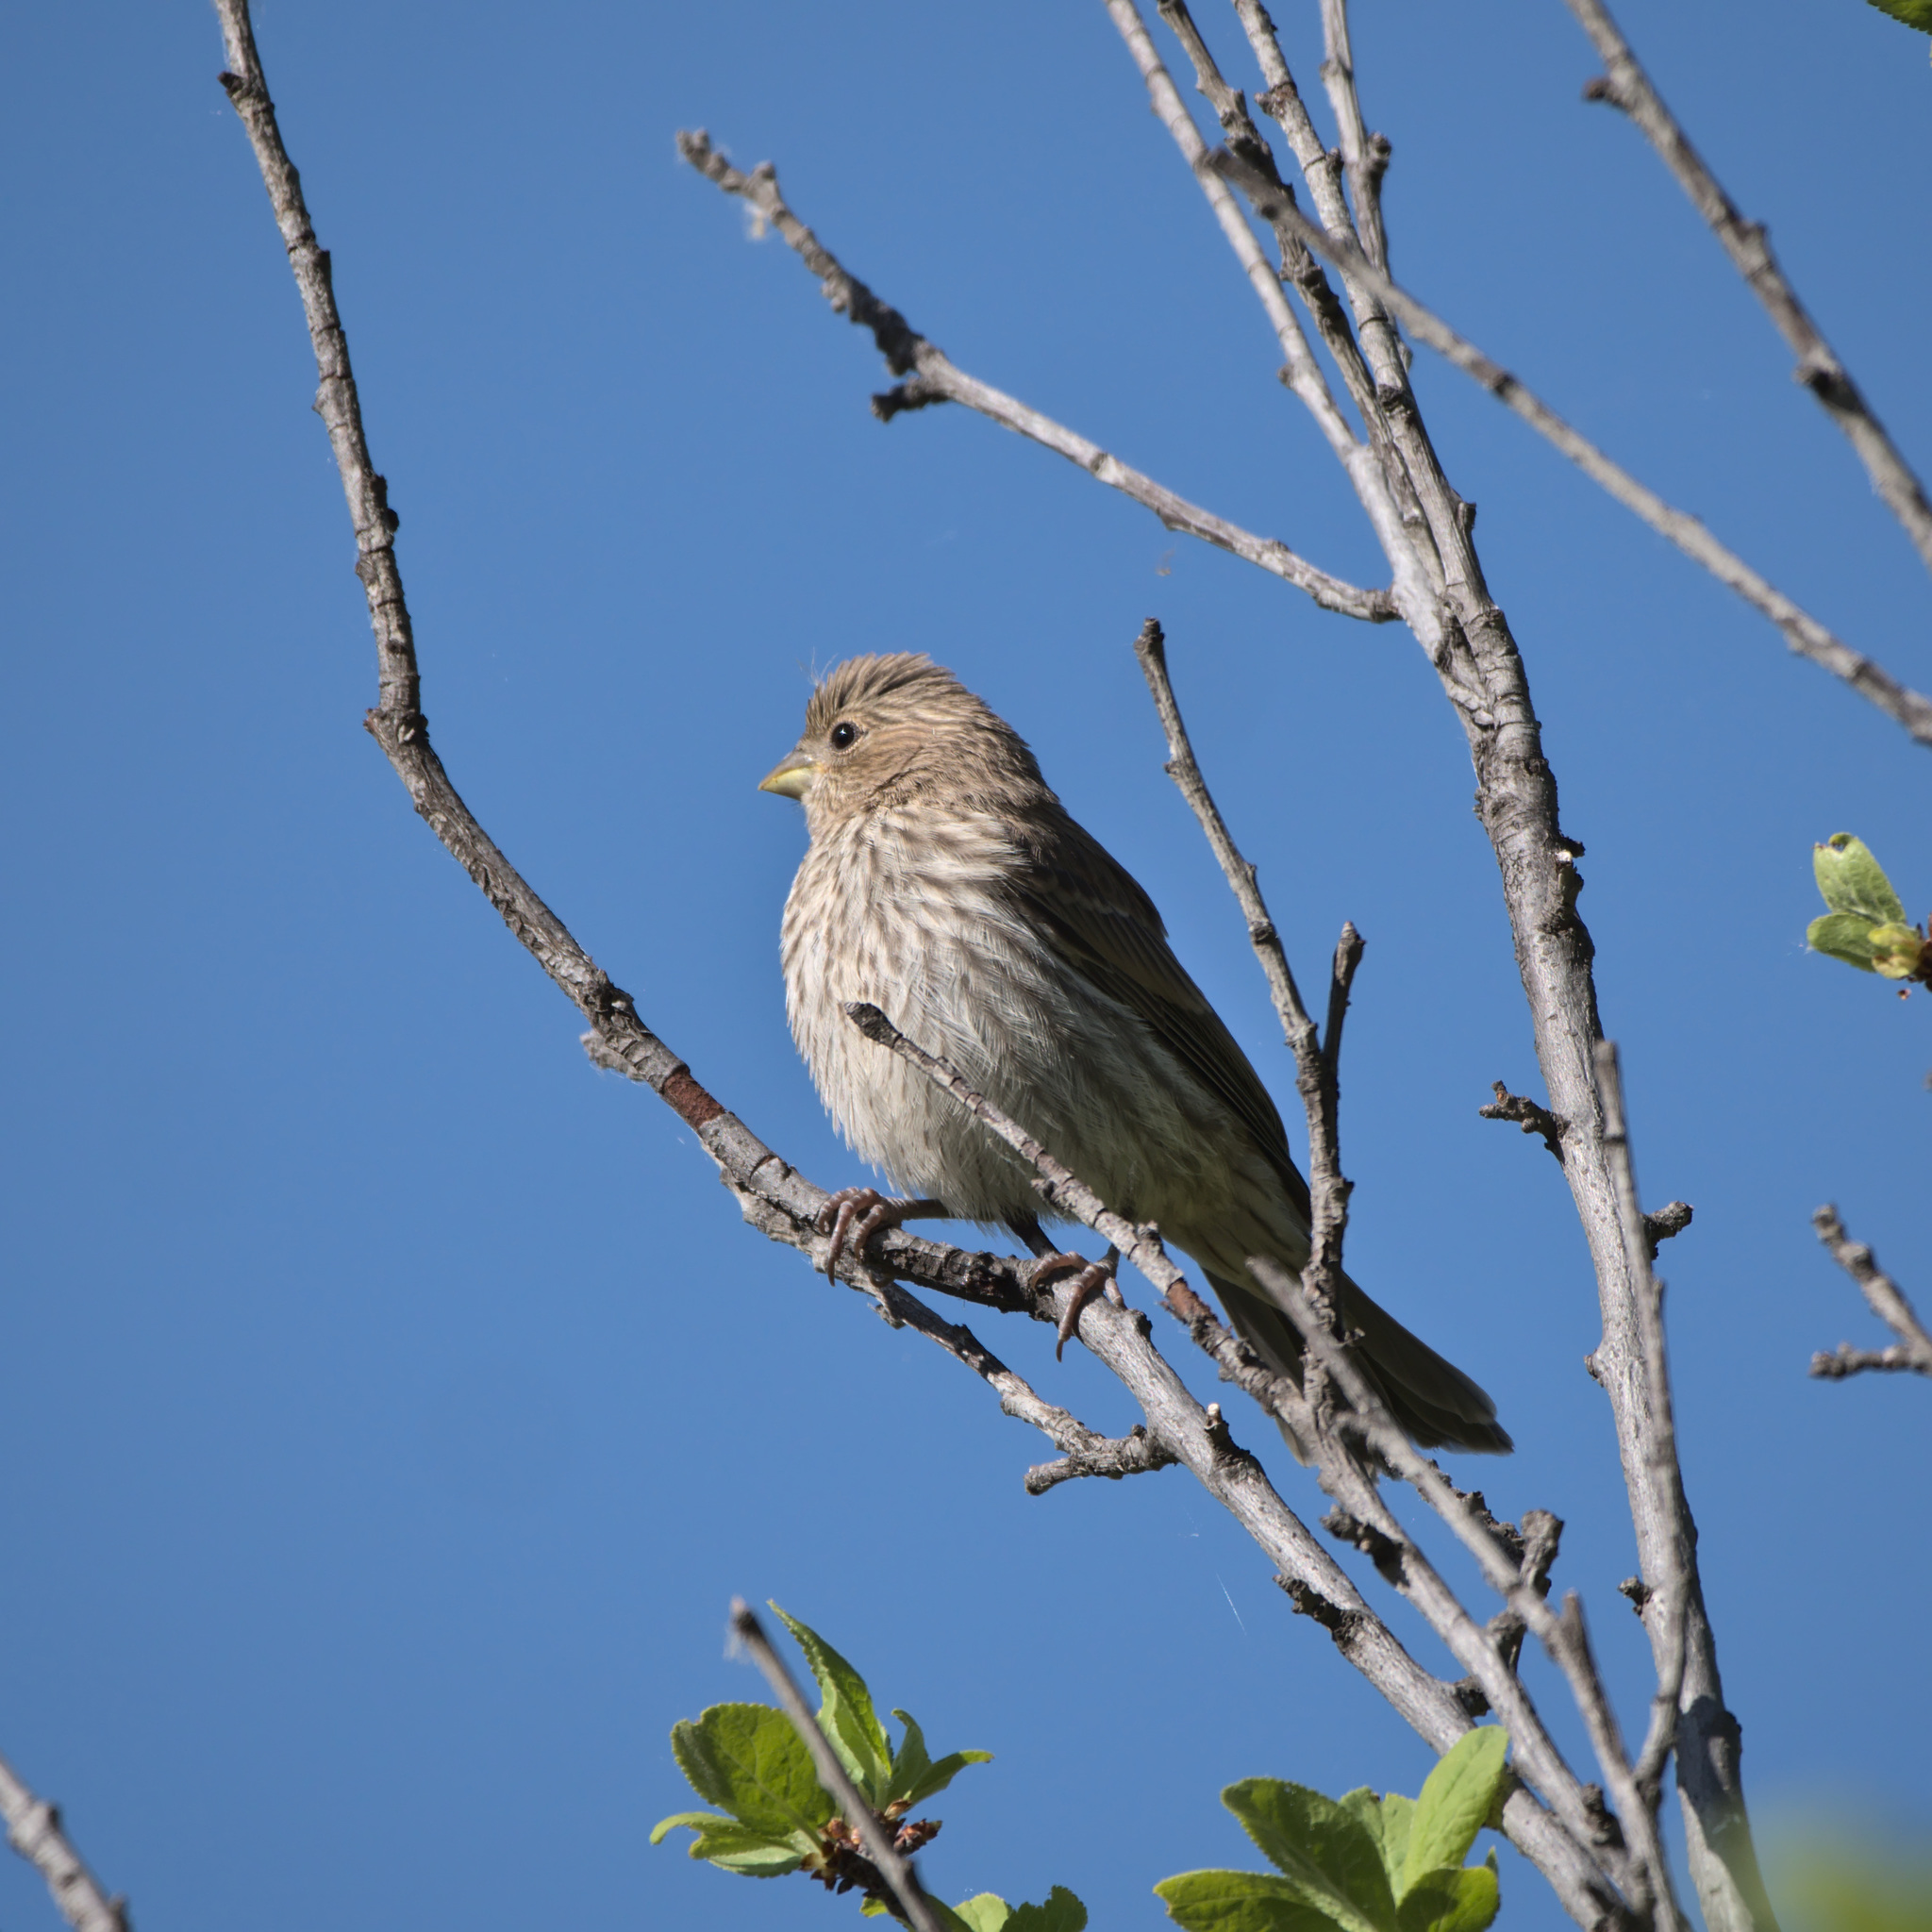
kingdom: Animalia
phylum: Chordata
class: Aves
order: Passeriformes
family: Fringillidae
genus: Haemorhous
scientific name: Haemorhous mexicanus
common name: House finch
